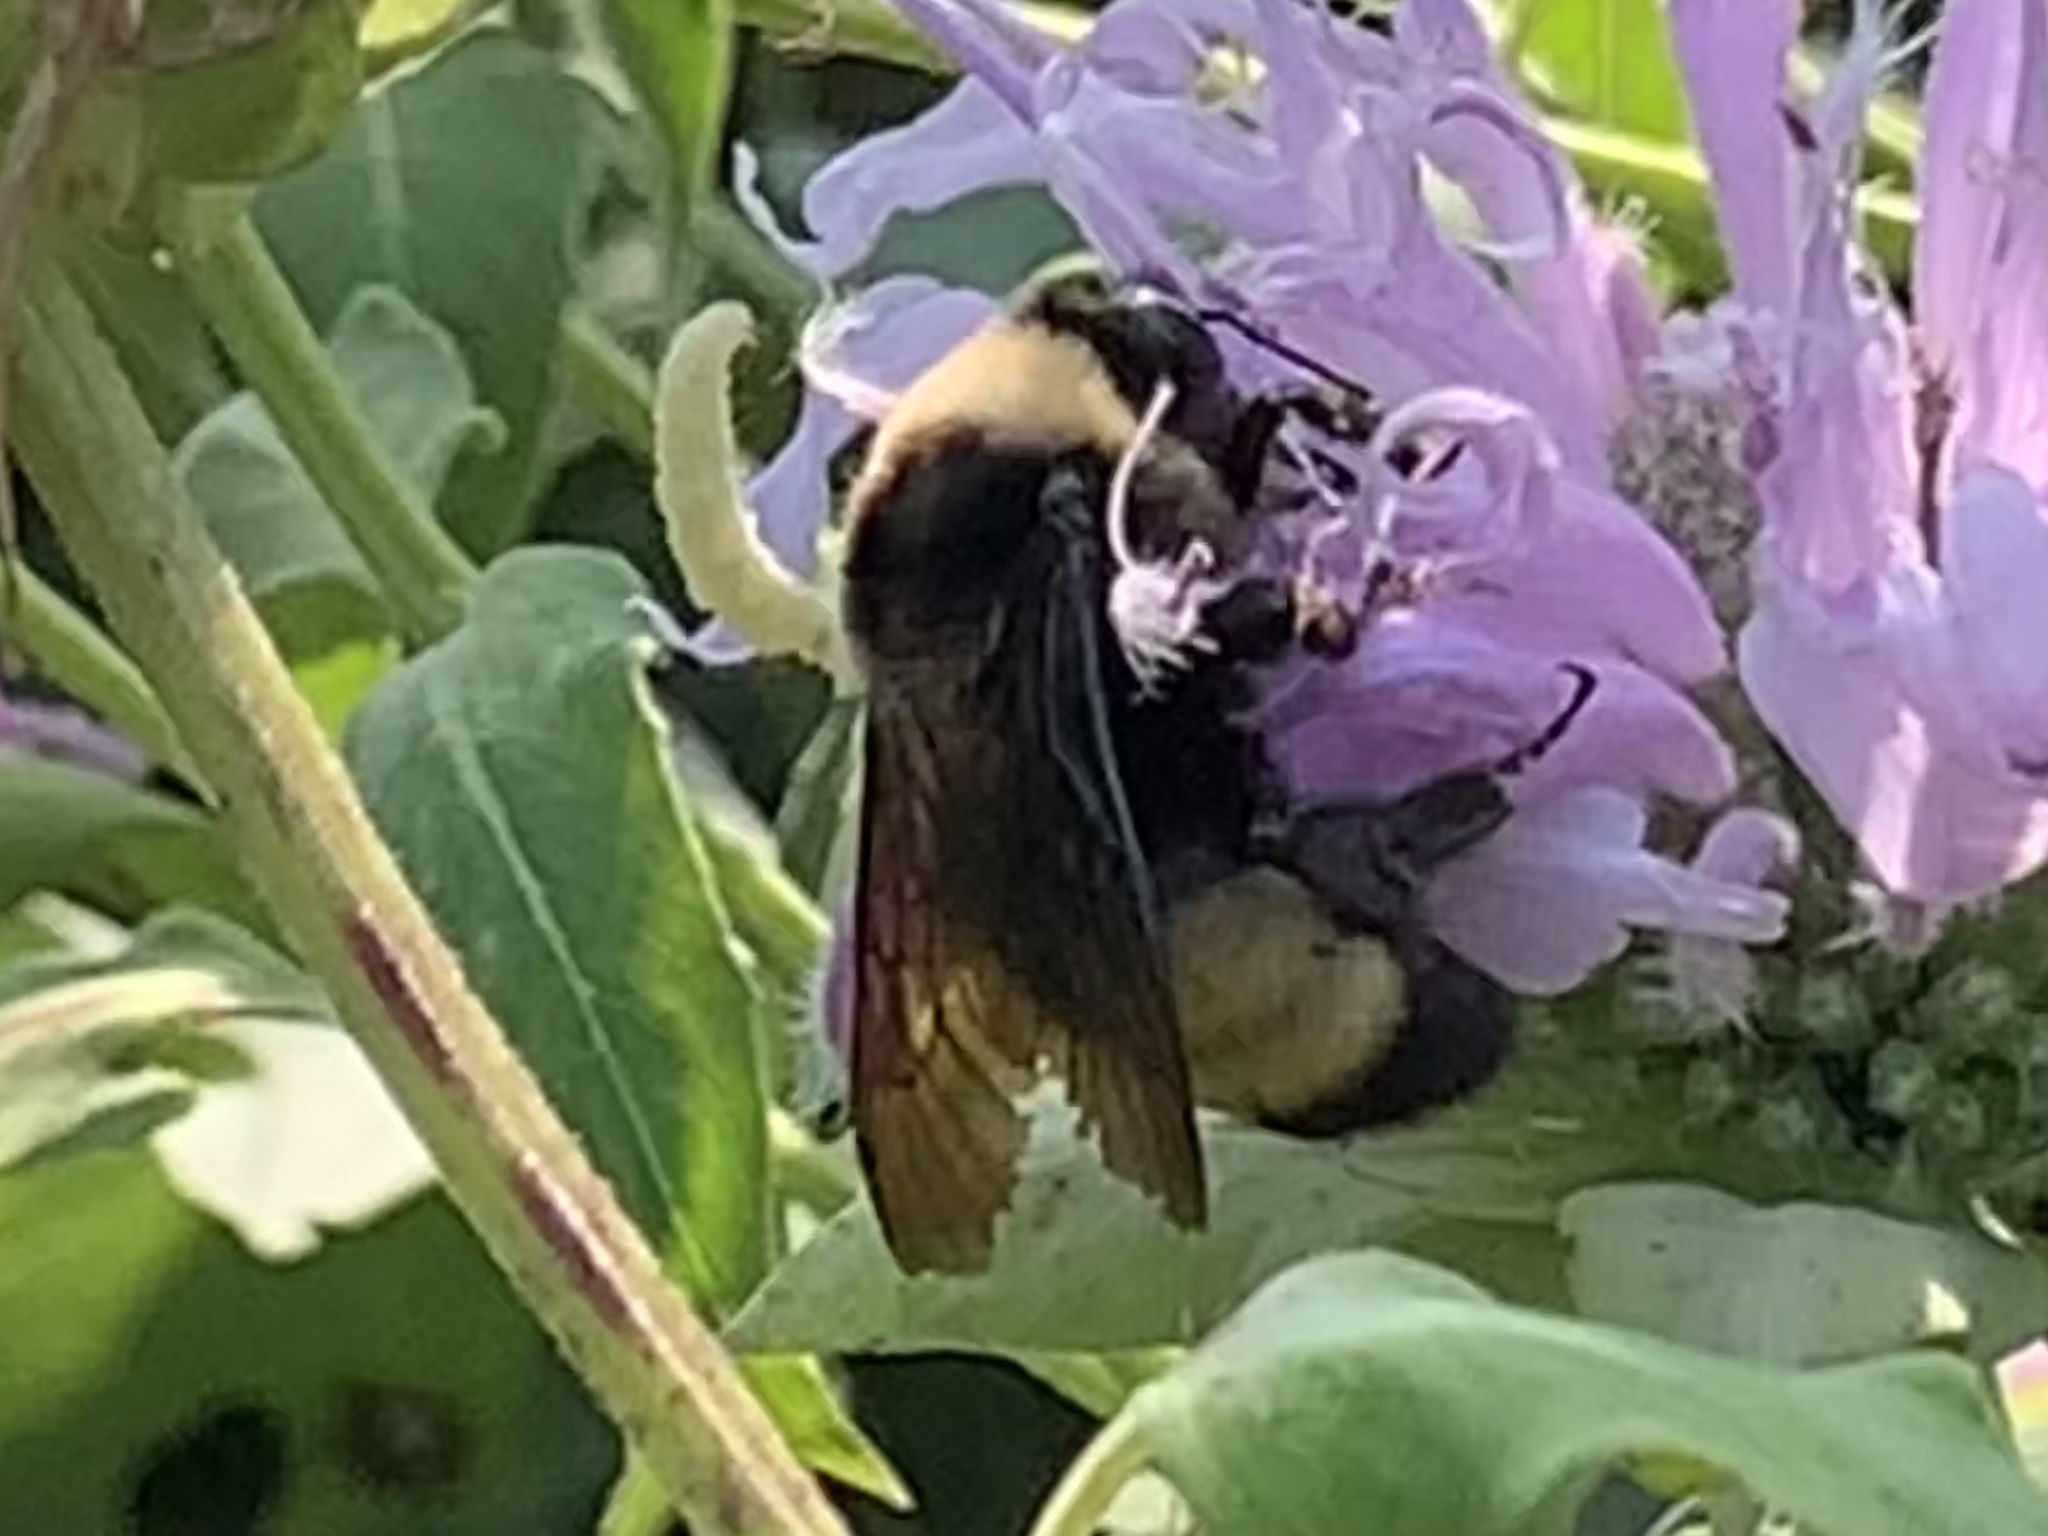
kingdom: Animalia
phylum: Arthropoda
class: Insecta
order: Hymenoptera
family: Apidae
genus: Bombus
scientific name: Bombus auricomus
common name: Black and gold bumble bee
